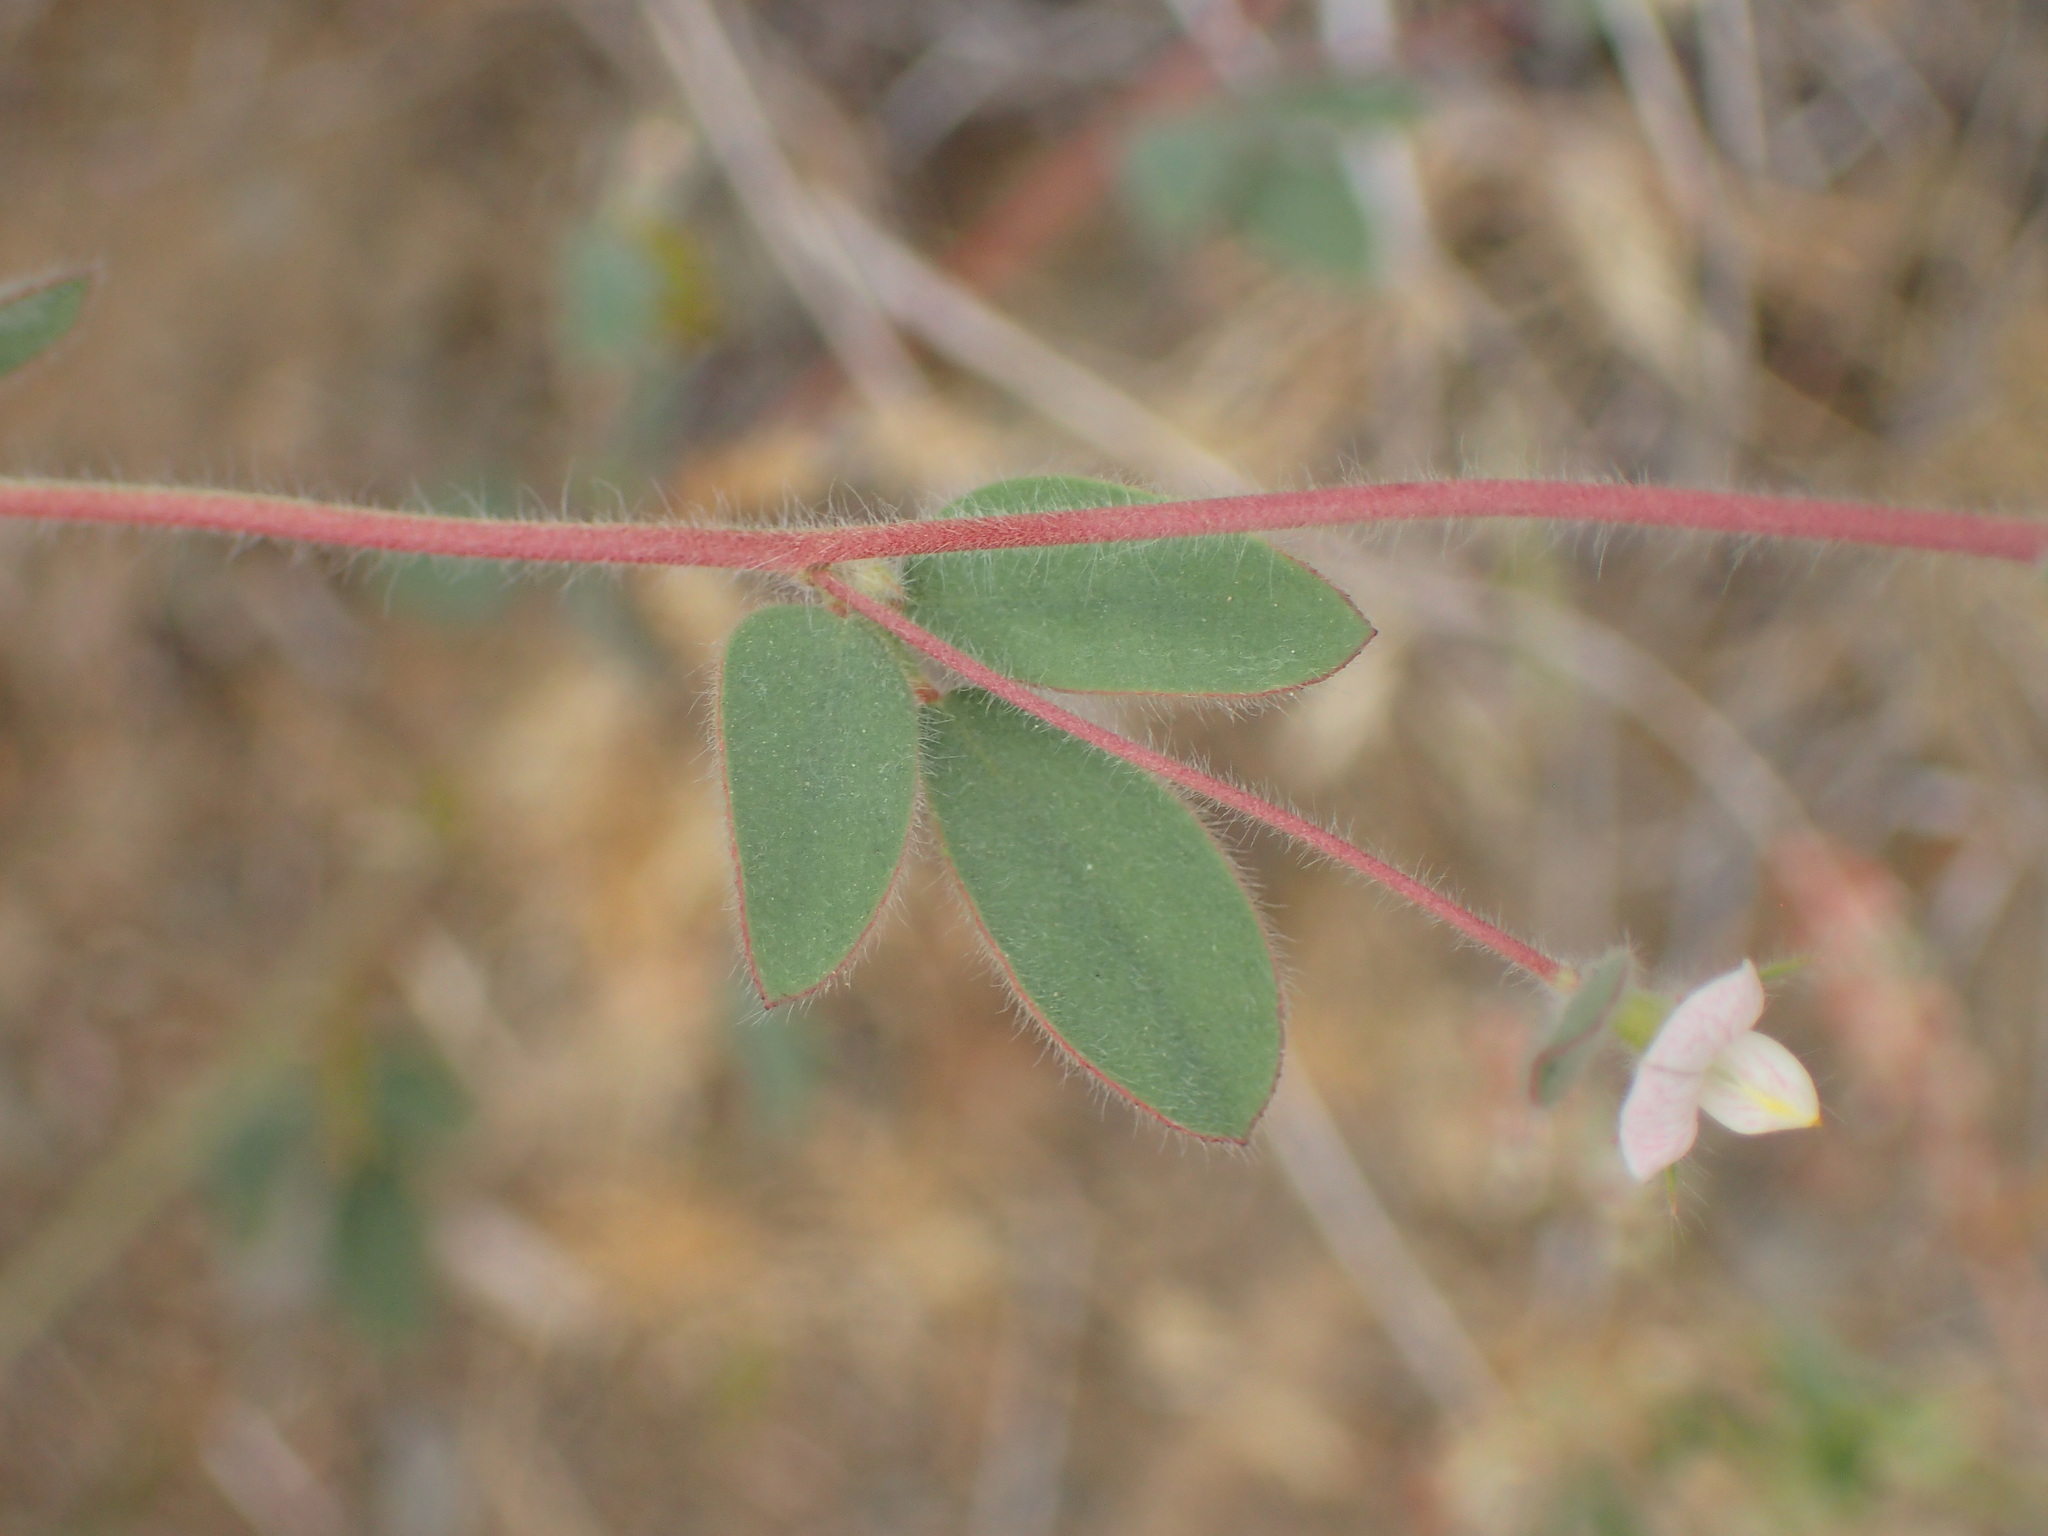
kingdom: Plantae
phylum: Tracheophyta
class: Magnoliopsida
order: Fabales
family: Fabaceae
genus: Acmispon
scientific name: Acmispon americanus
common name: American bird's-foot trefoil
